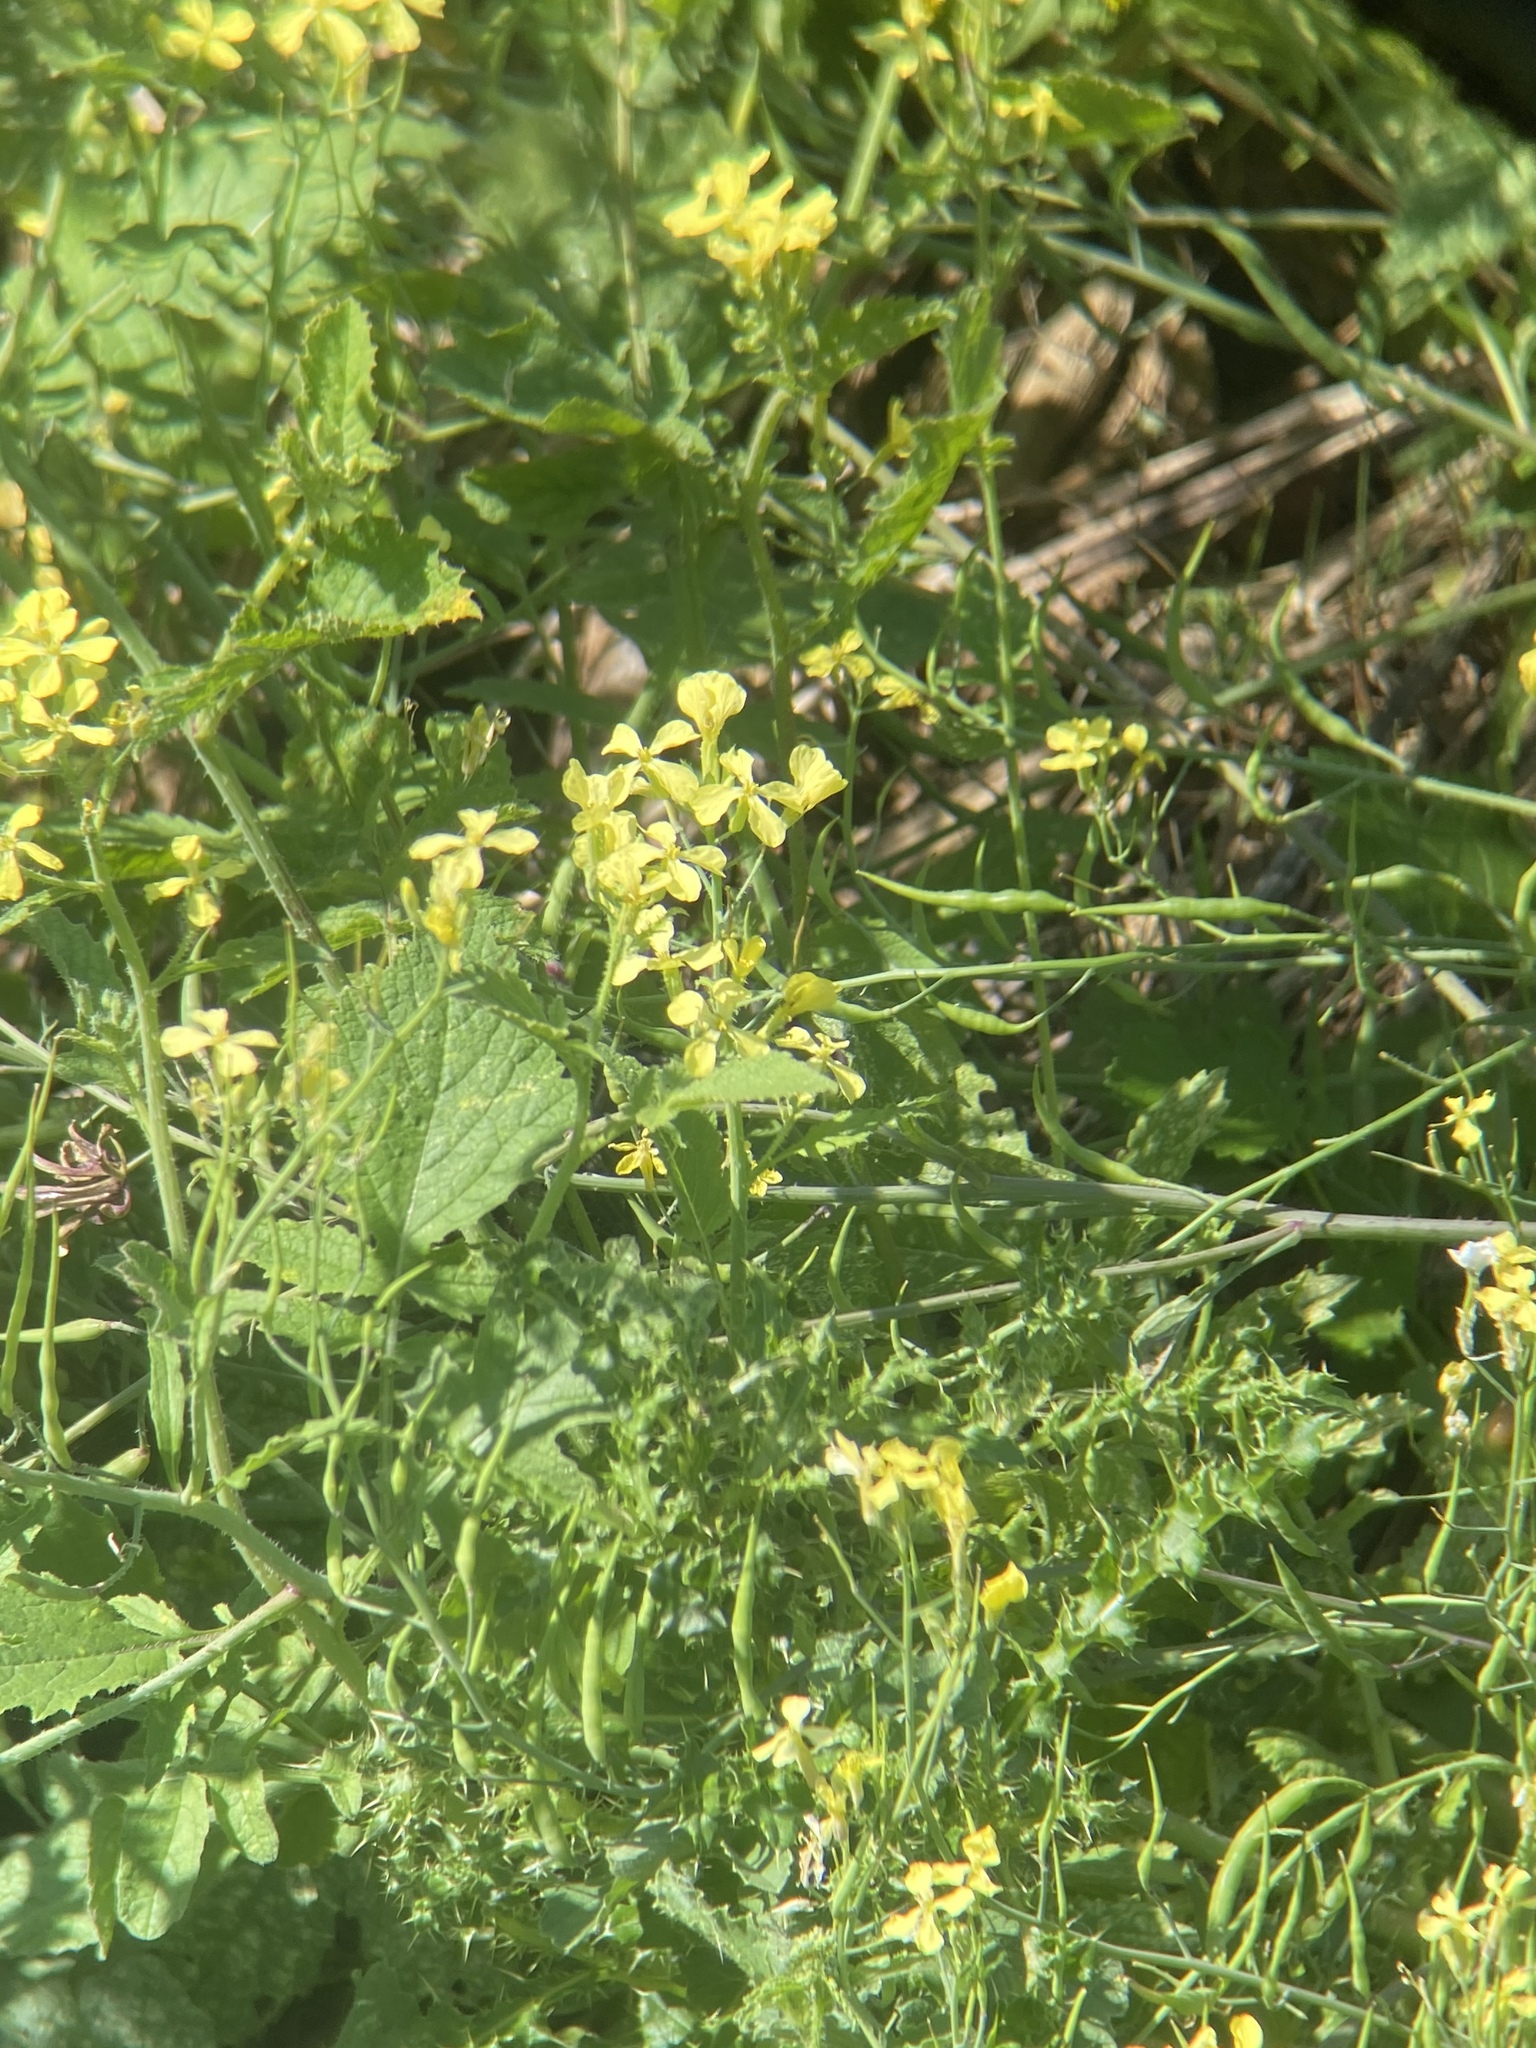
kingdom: Plantae
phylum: Tracheophyta
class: Magnoliopsida
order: Brassicales
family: Brassicaceae
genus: Raphanus
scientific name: Raphanus raphanistrum
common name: Wild radish
